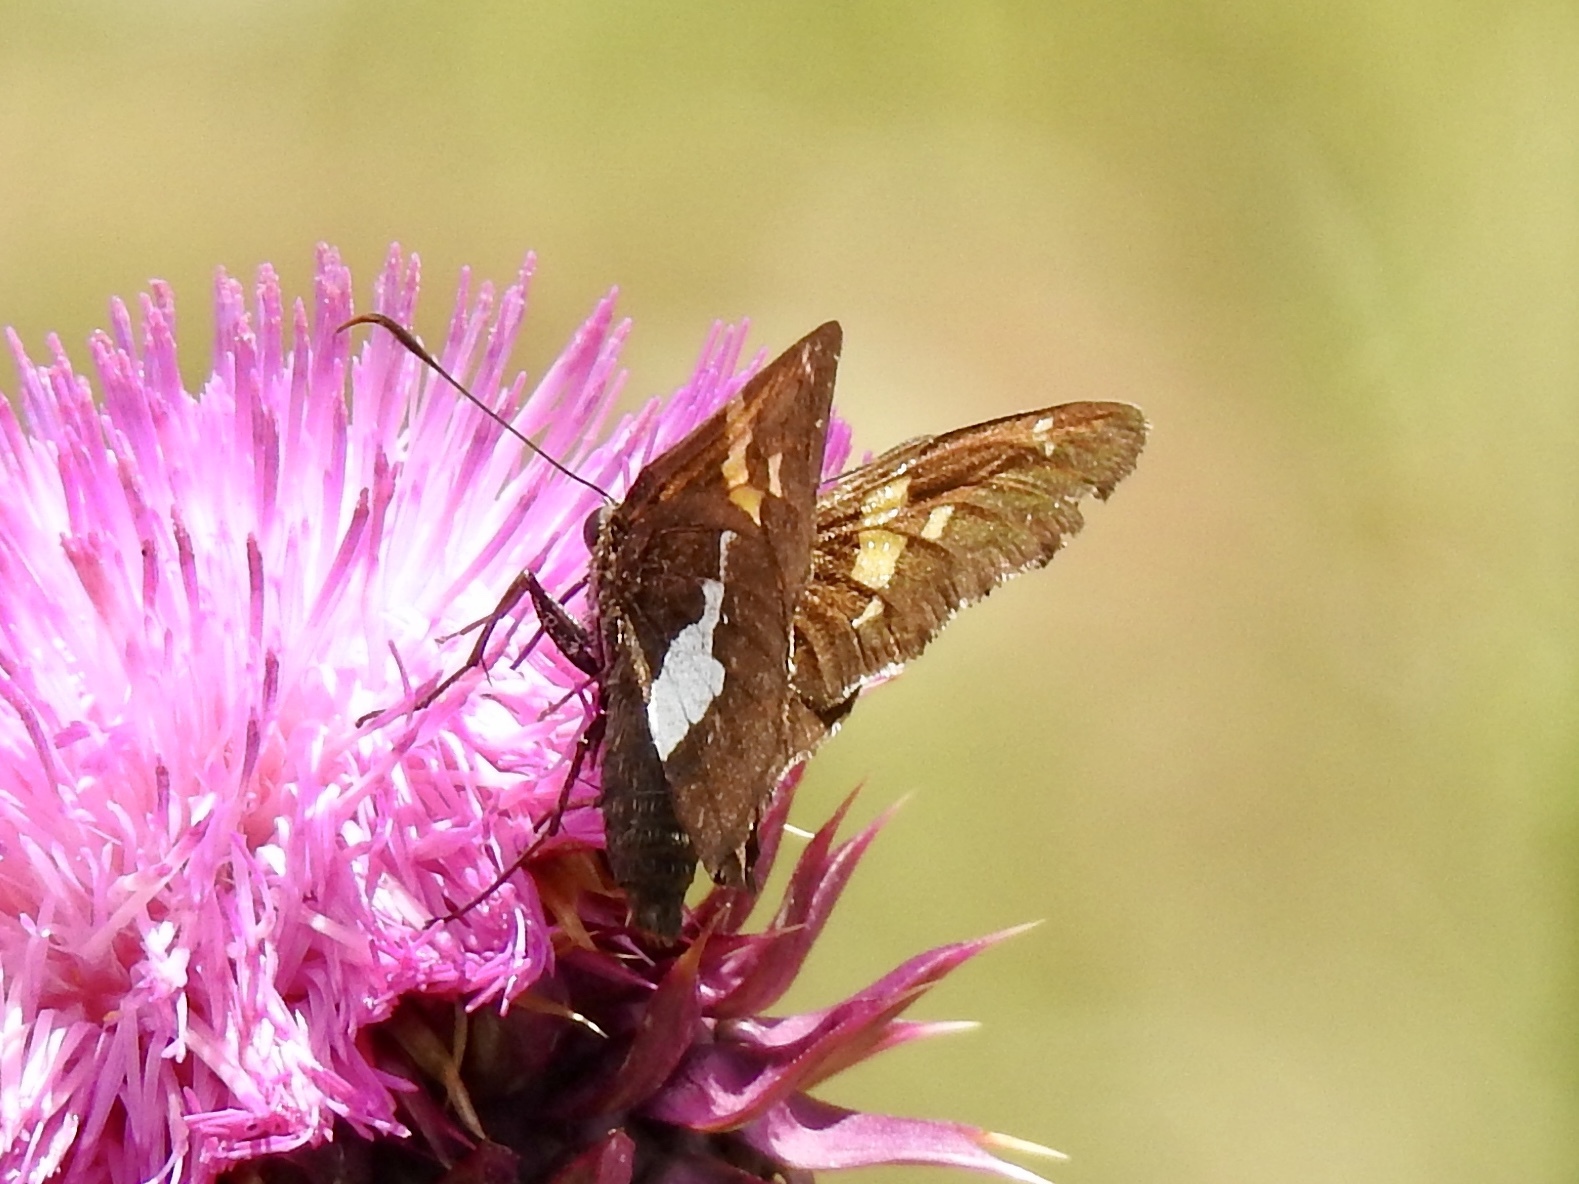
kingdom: Animalia
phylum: Arthropoda
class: Insecta
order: Lepidoptera
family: Hesperiidae
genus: Epargyreus
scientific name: Epargyreus clarus
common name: Silver-spotted skipper
